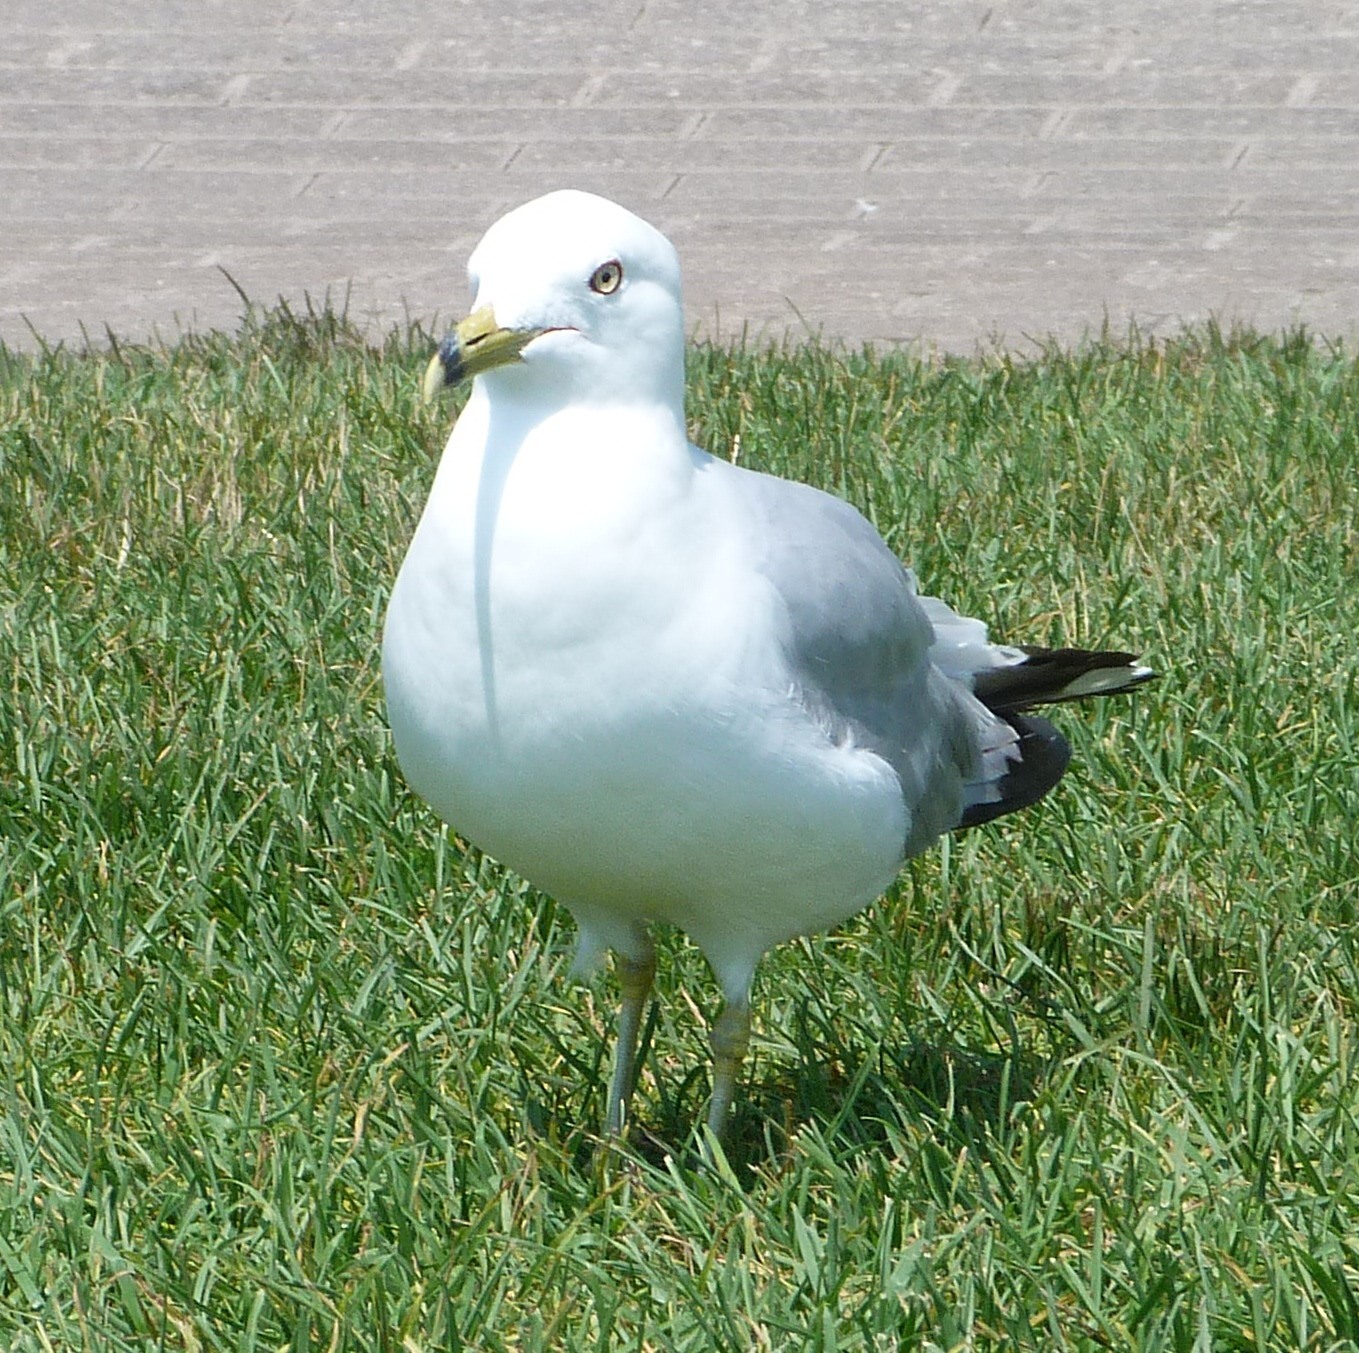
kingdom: Animalia
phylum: Chordata
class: Aves
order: Charadriiformes
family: Laridae
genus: Larus
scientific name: Larus delawarensis
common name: Ring-billed gull
